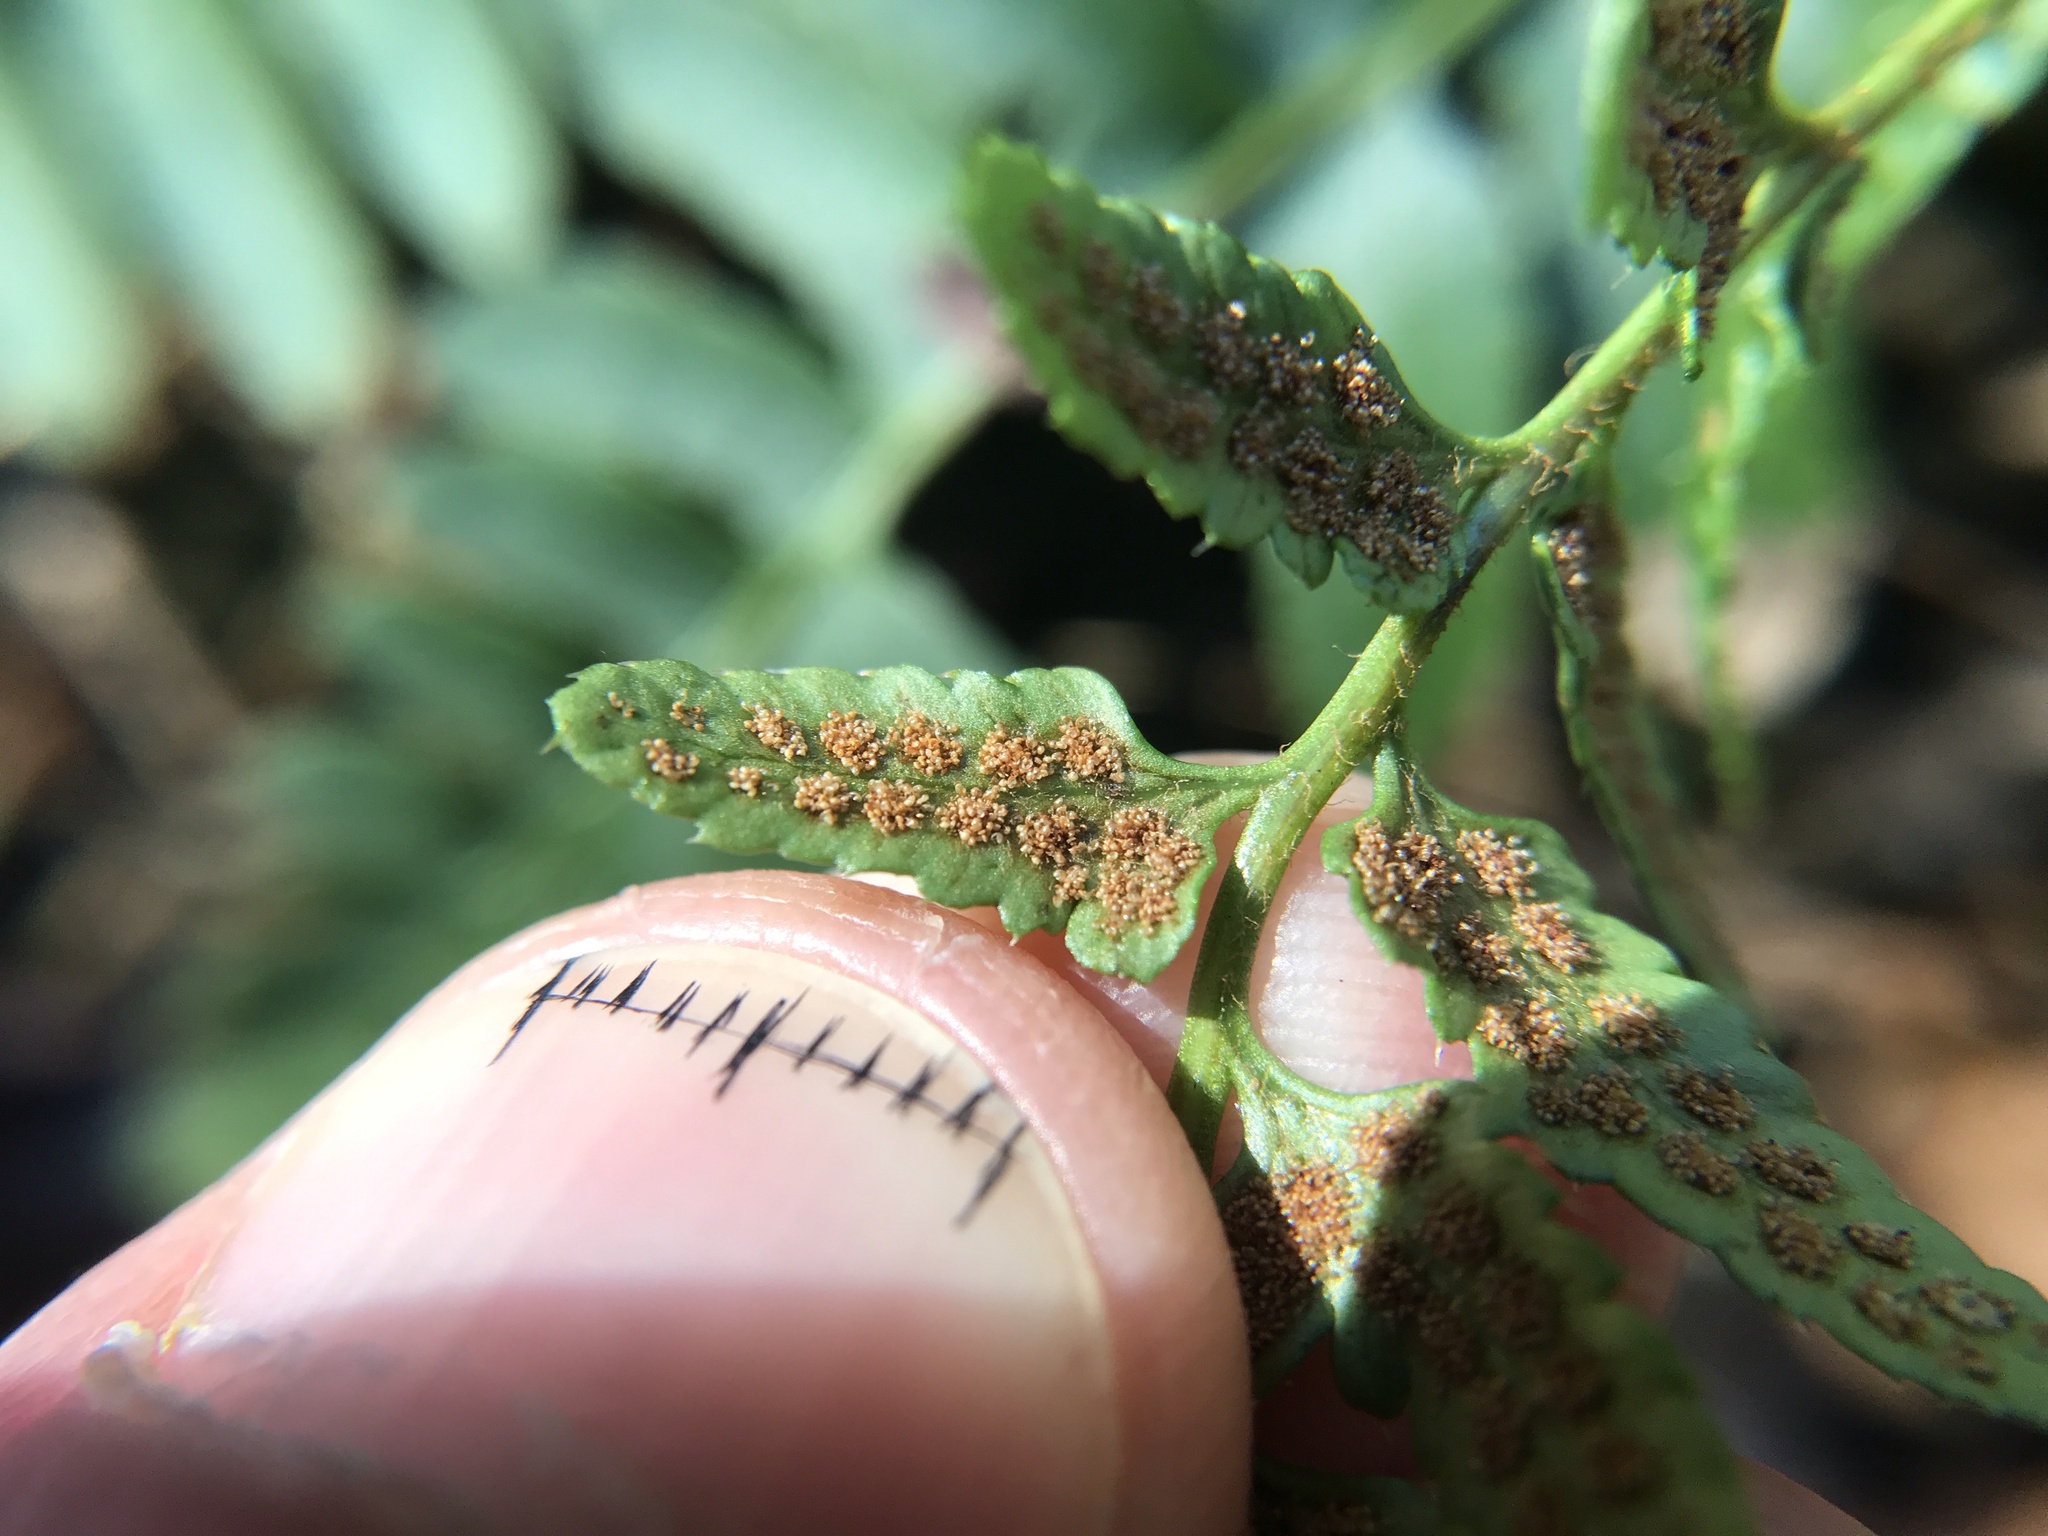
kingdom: Plantae
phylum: Tracheophyta
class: Polypodiopsida
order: Polypodiales
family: Dryopteridaceae
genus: Polystichum
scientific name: Polystichum acrostichoides
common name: Christmas fern
